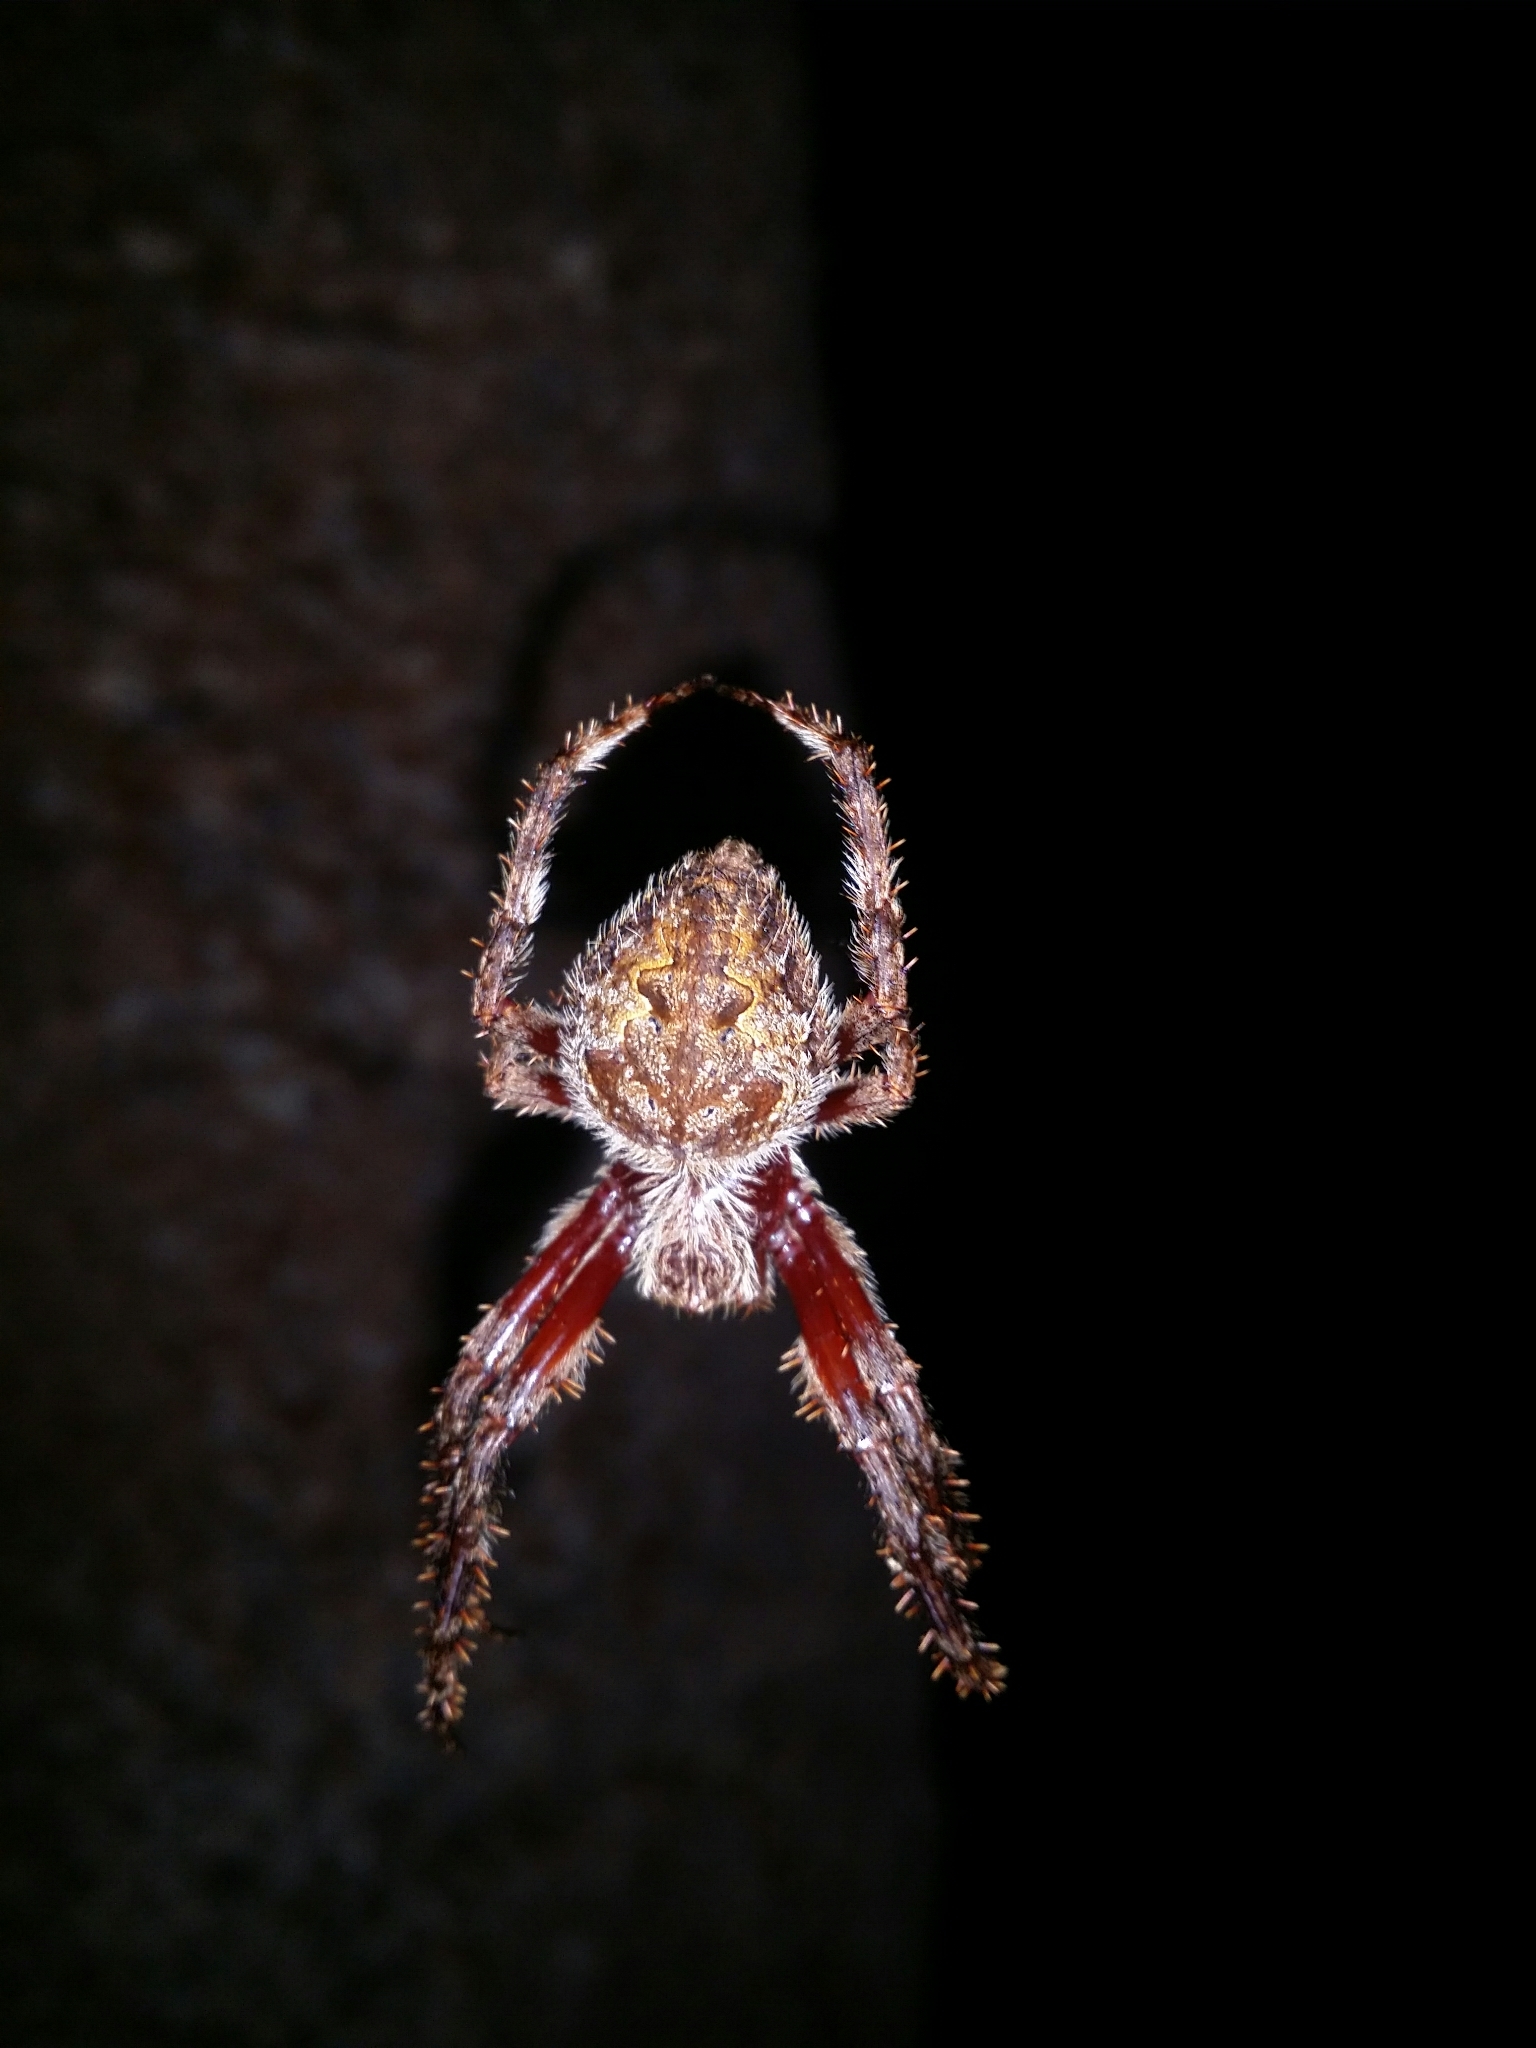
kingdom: Animalia
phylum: Arthropoda
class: Arachnida
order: Araneae
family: Araneidae
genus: Hortophora
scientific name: Hortophora biapicata
